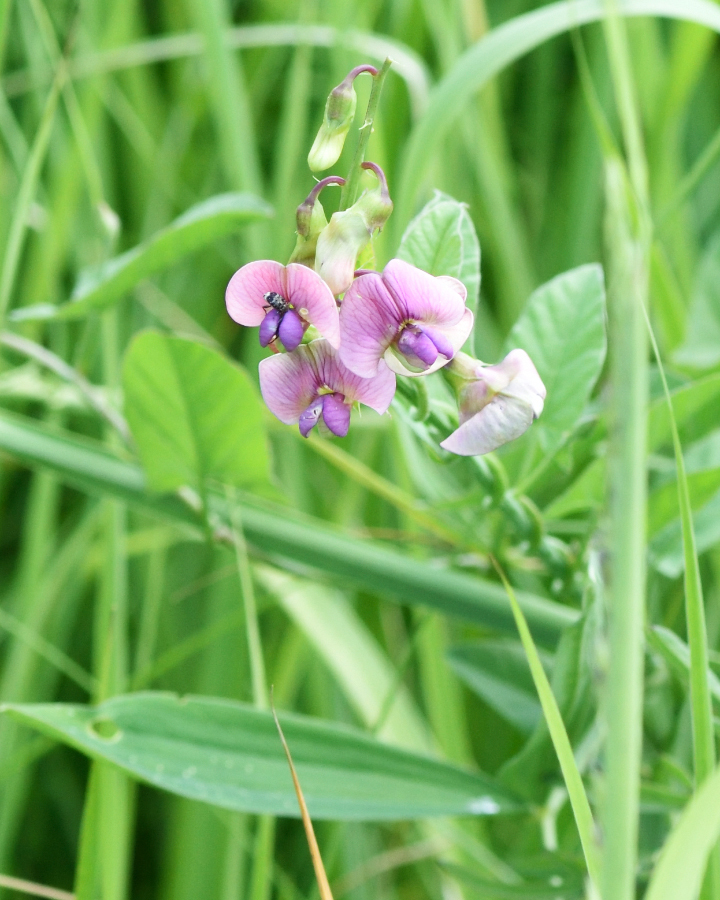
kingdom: Plantae
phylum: Tracheophyta
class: Magnoliopsida
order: Fabales
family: Fabaceae
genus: Lathyrus
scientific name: Lathyrus sylvestris
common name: Flat pea
